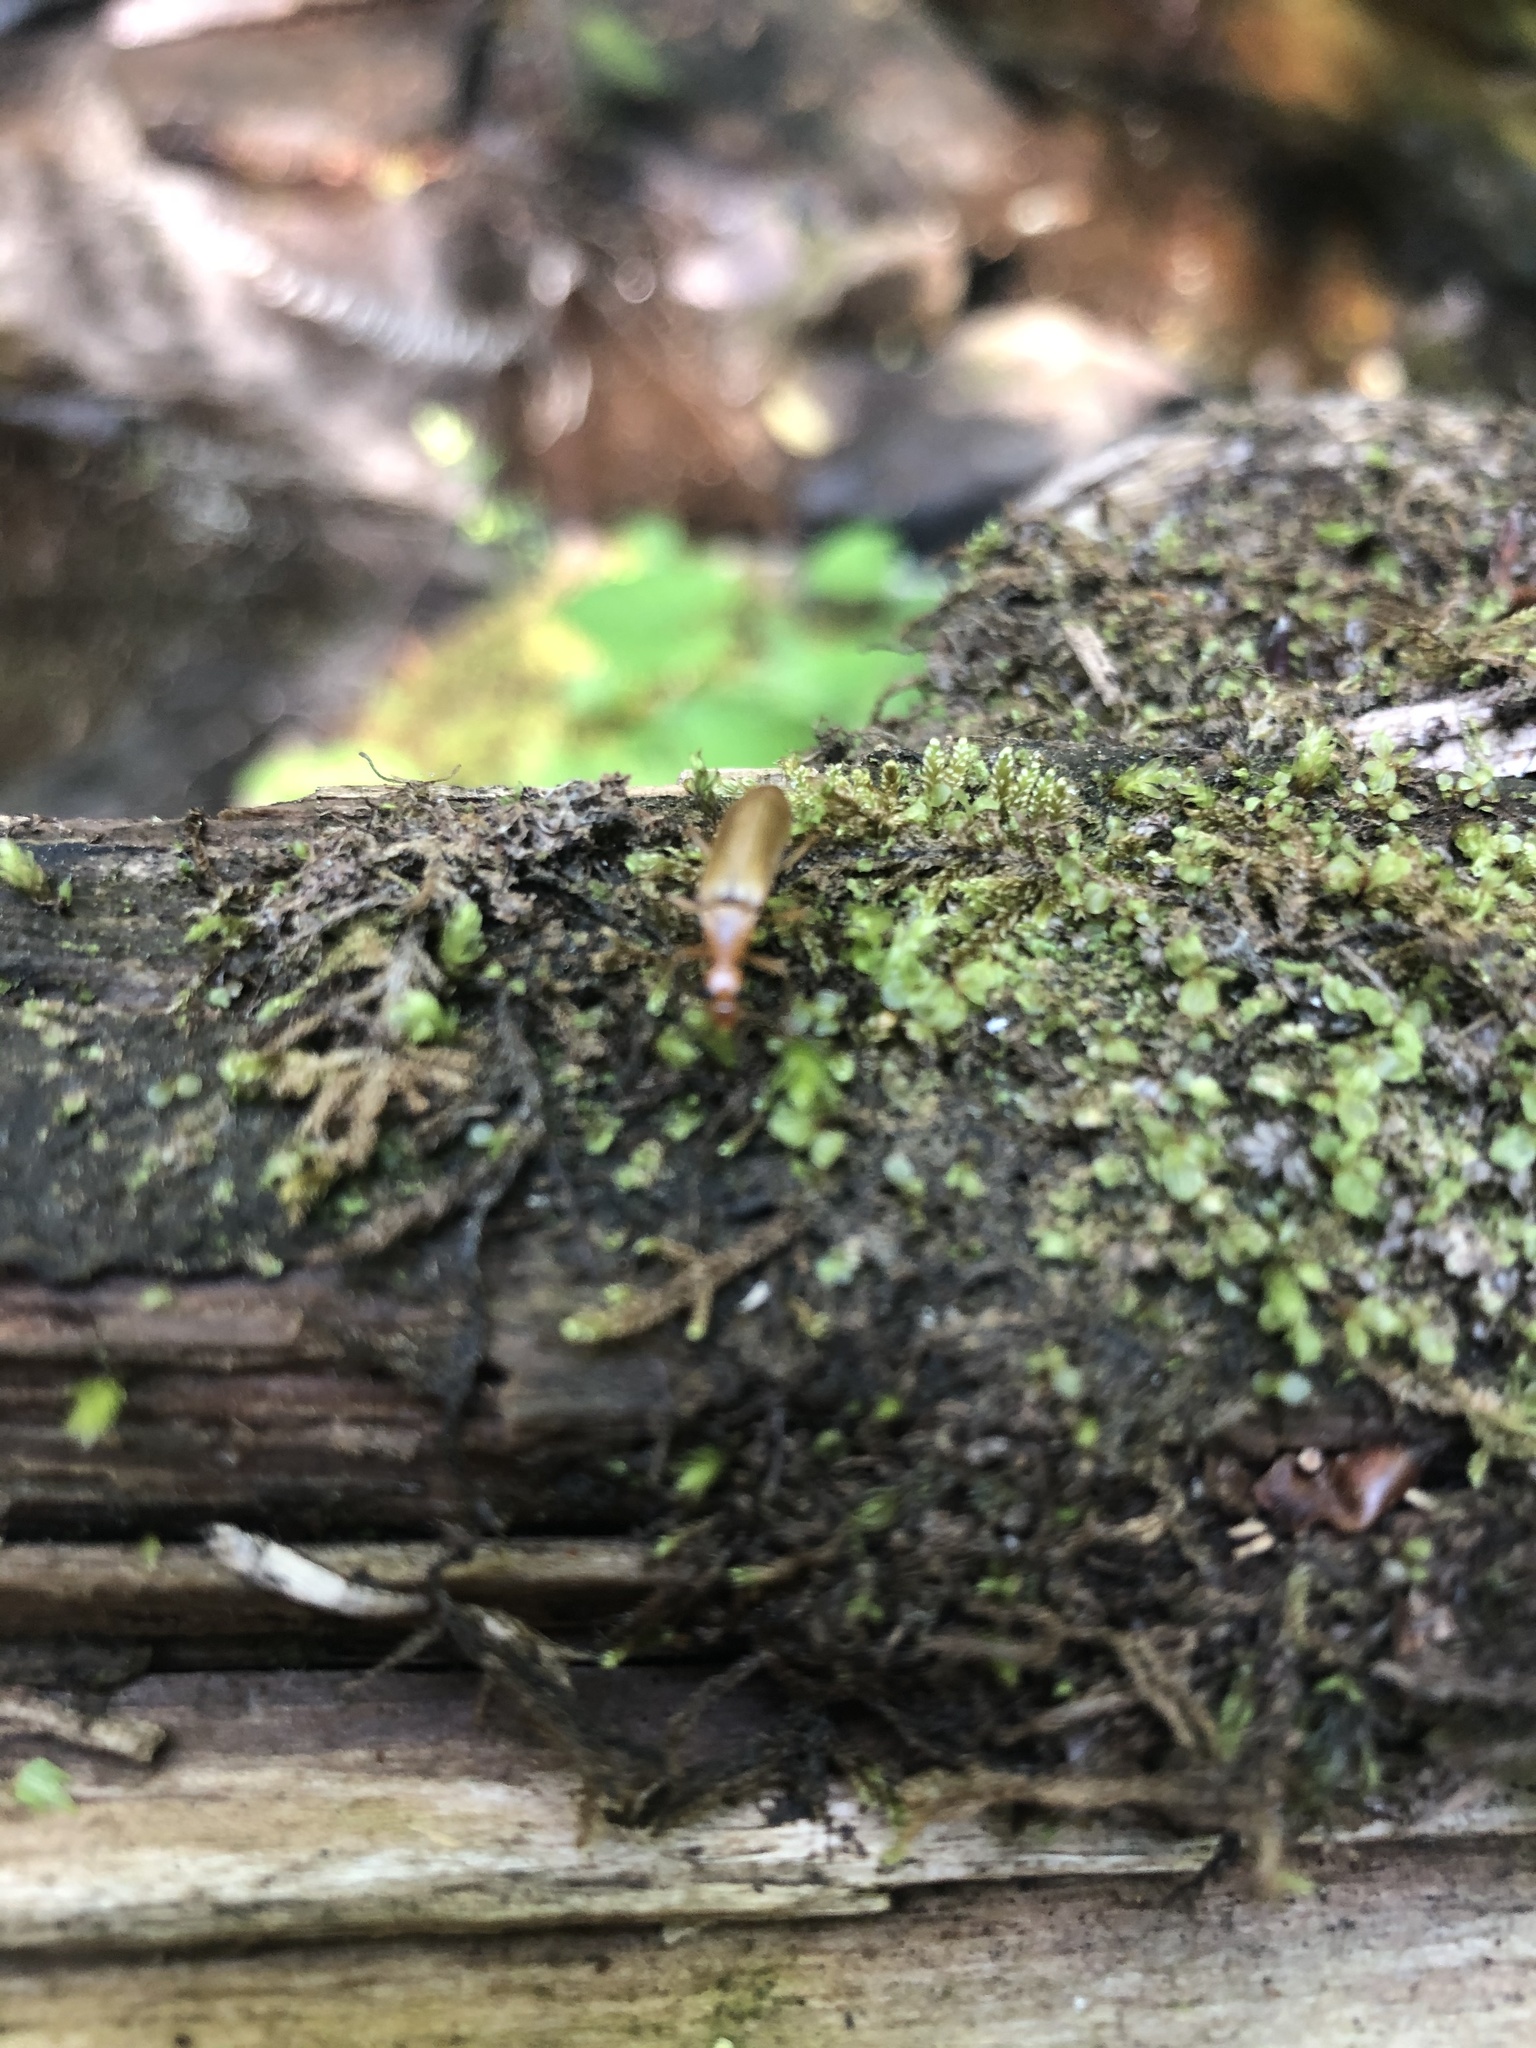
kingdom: Animalia
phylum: Arthropoda
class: Insecta
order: Coleoptera
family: Stenotrachelidae
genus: Cephaloon
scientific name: Cephaloon lepturides
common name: False leptura beetle
